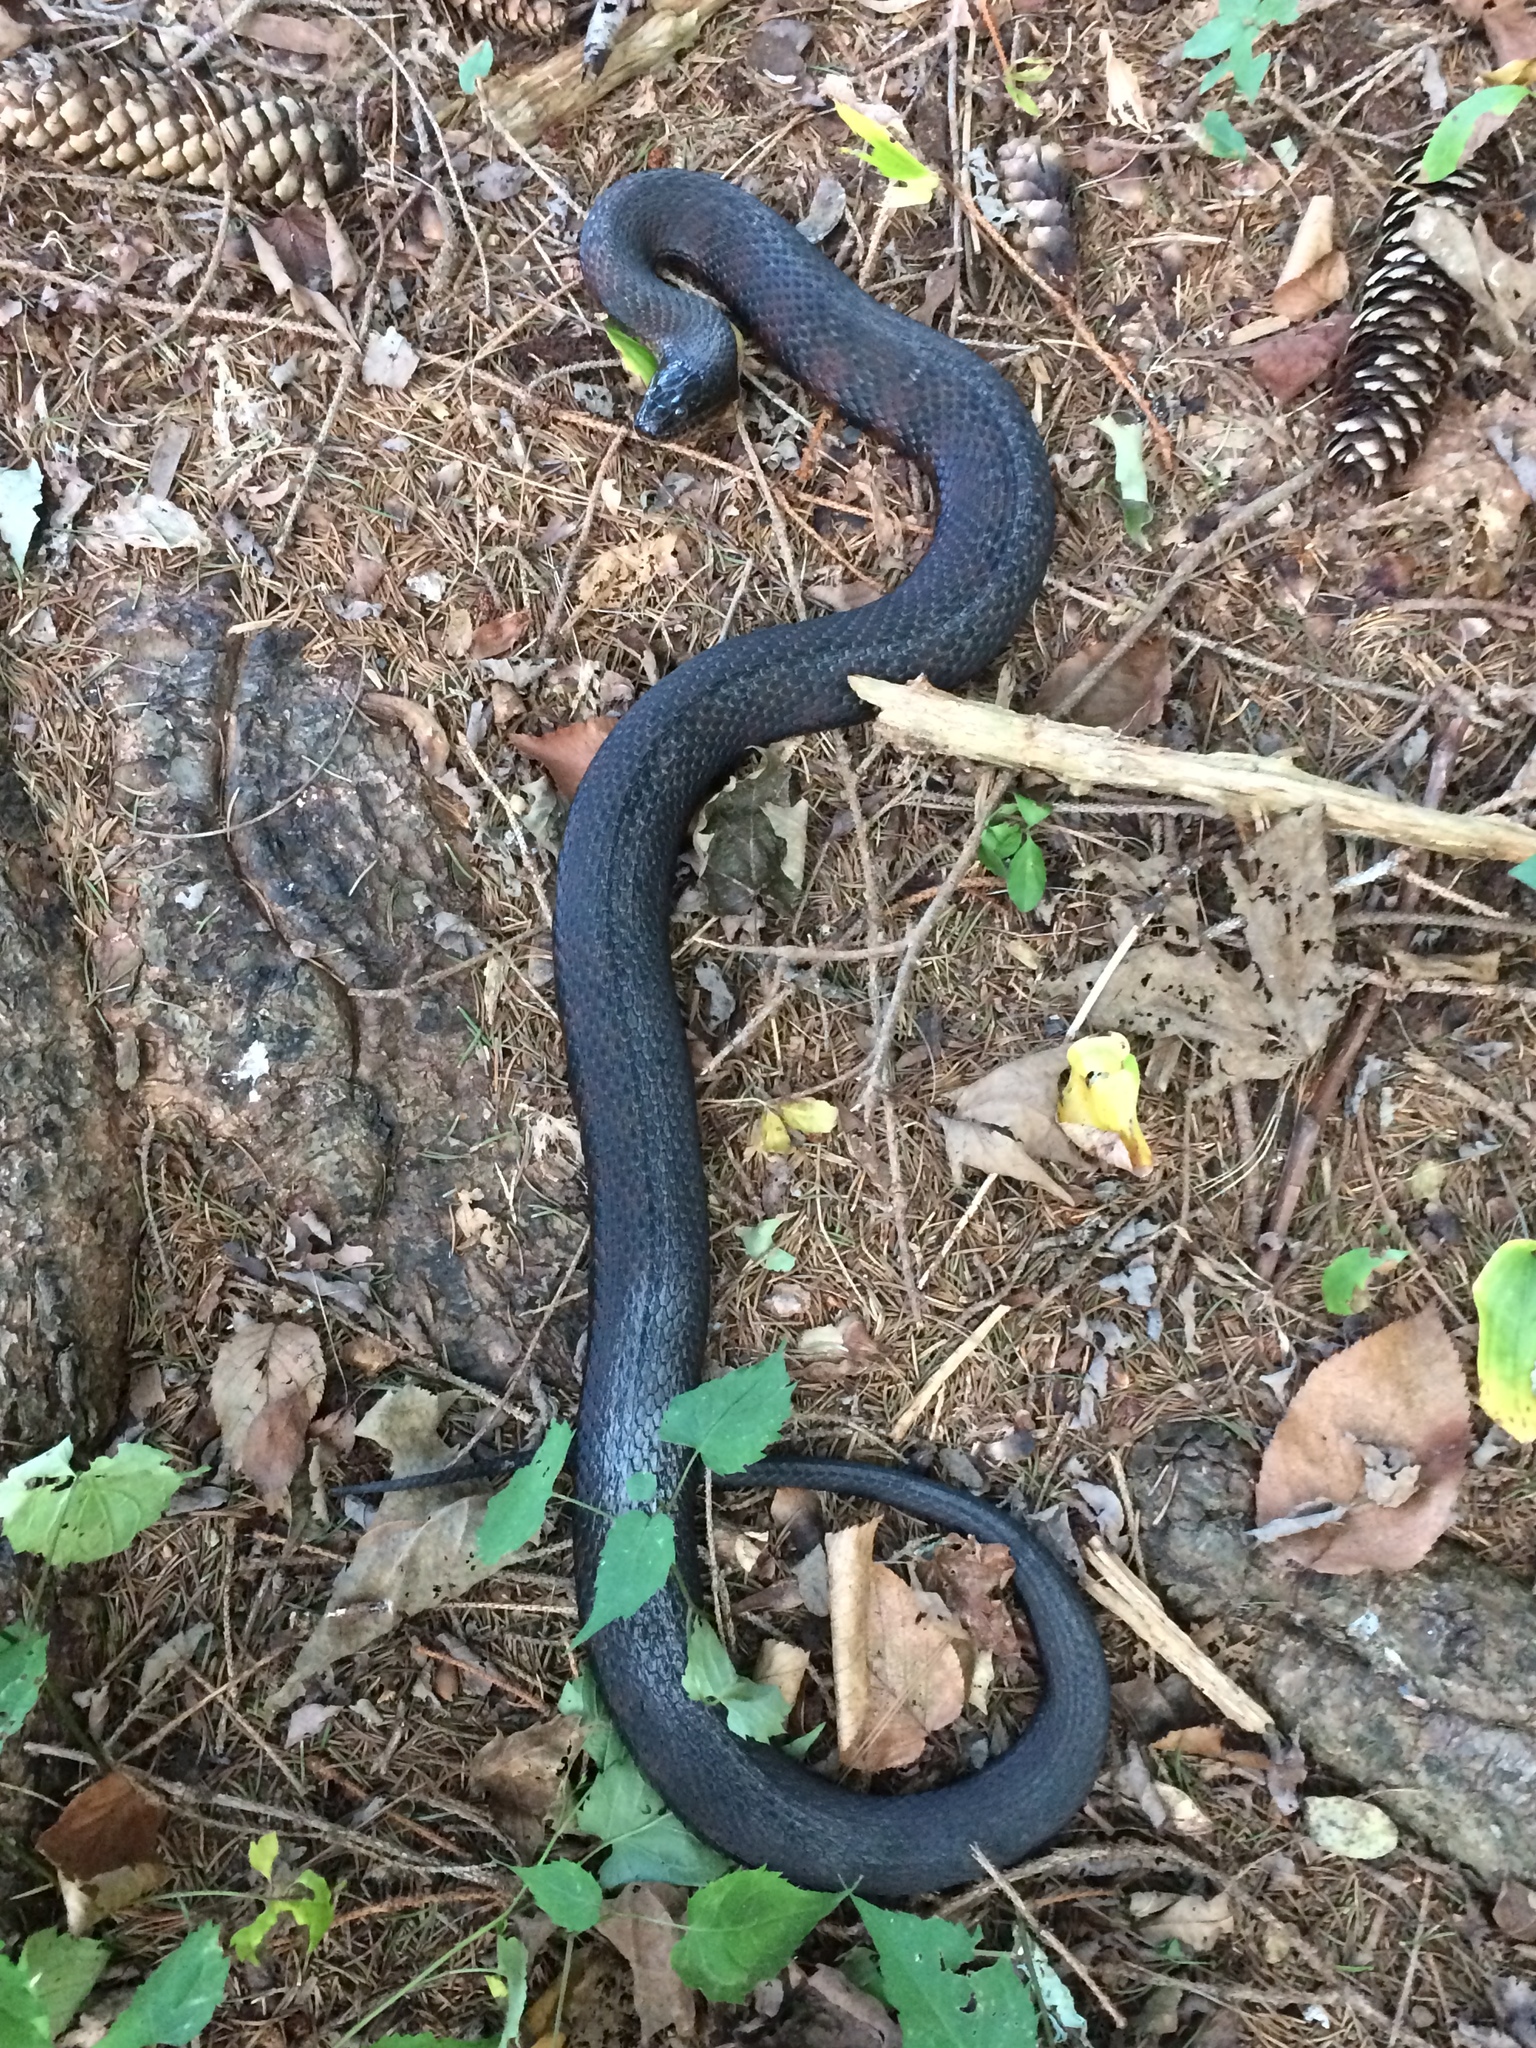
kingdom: Animalia
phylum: Chordata
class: Squamata
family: Colubridae
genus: Nerodia
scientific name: Nerodia sipedon
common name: Northern water snake
